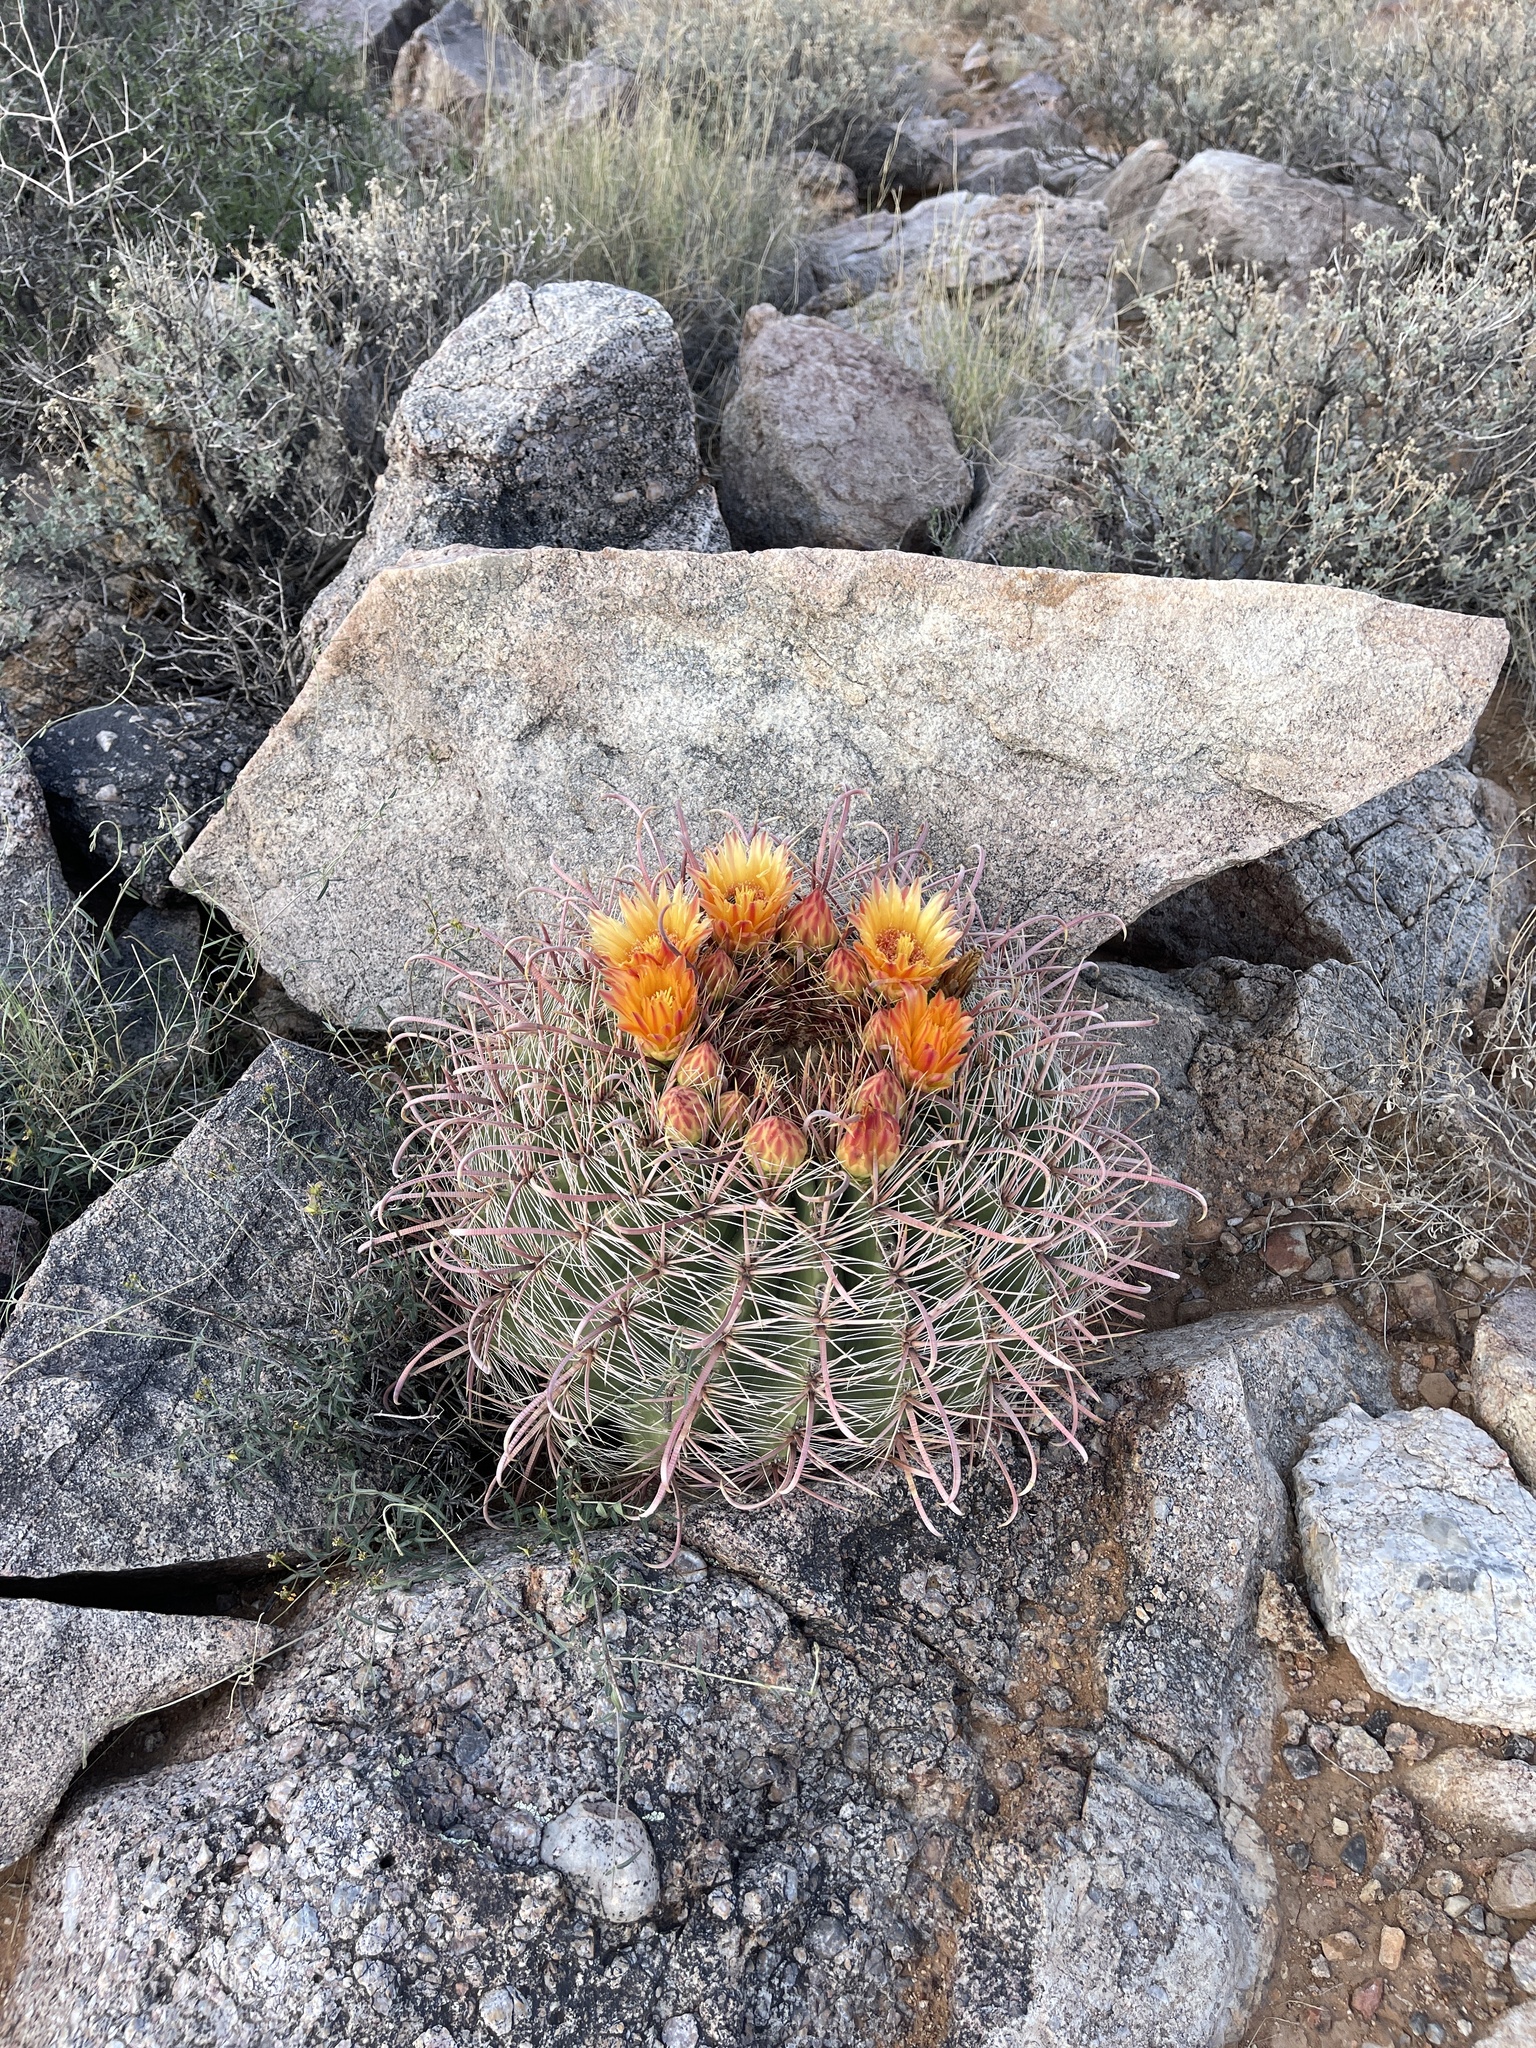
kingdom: Plantae
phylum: Tracheophyta
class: Magnoliopsida
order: Caryophyllales
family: Cactaceae
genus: Ferocactus
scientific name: Ferocactus wislizeni
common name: Candy barrel cactus
